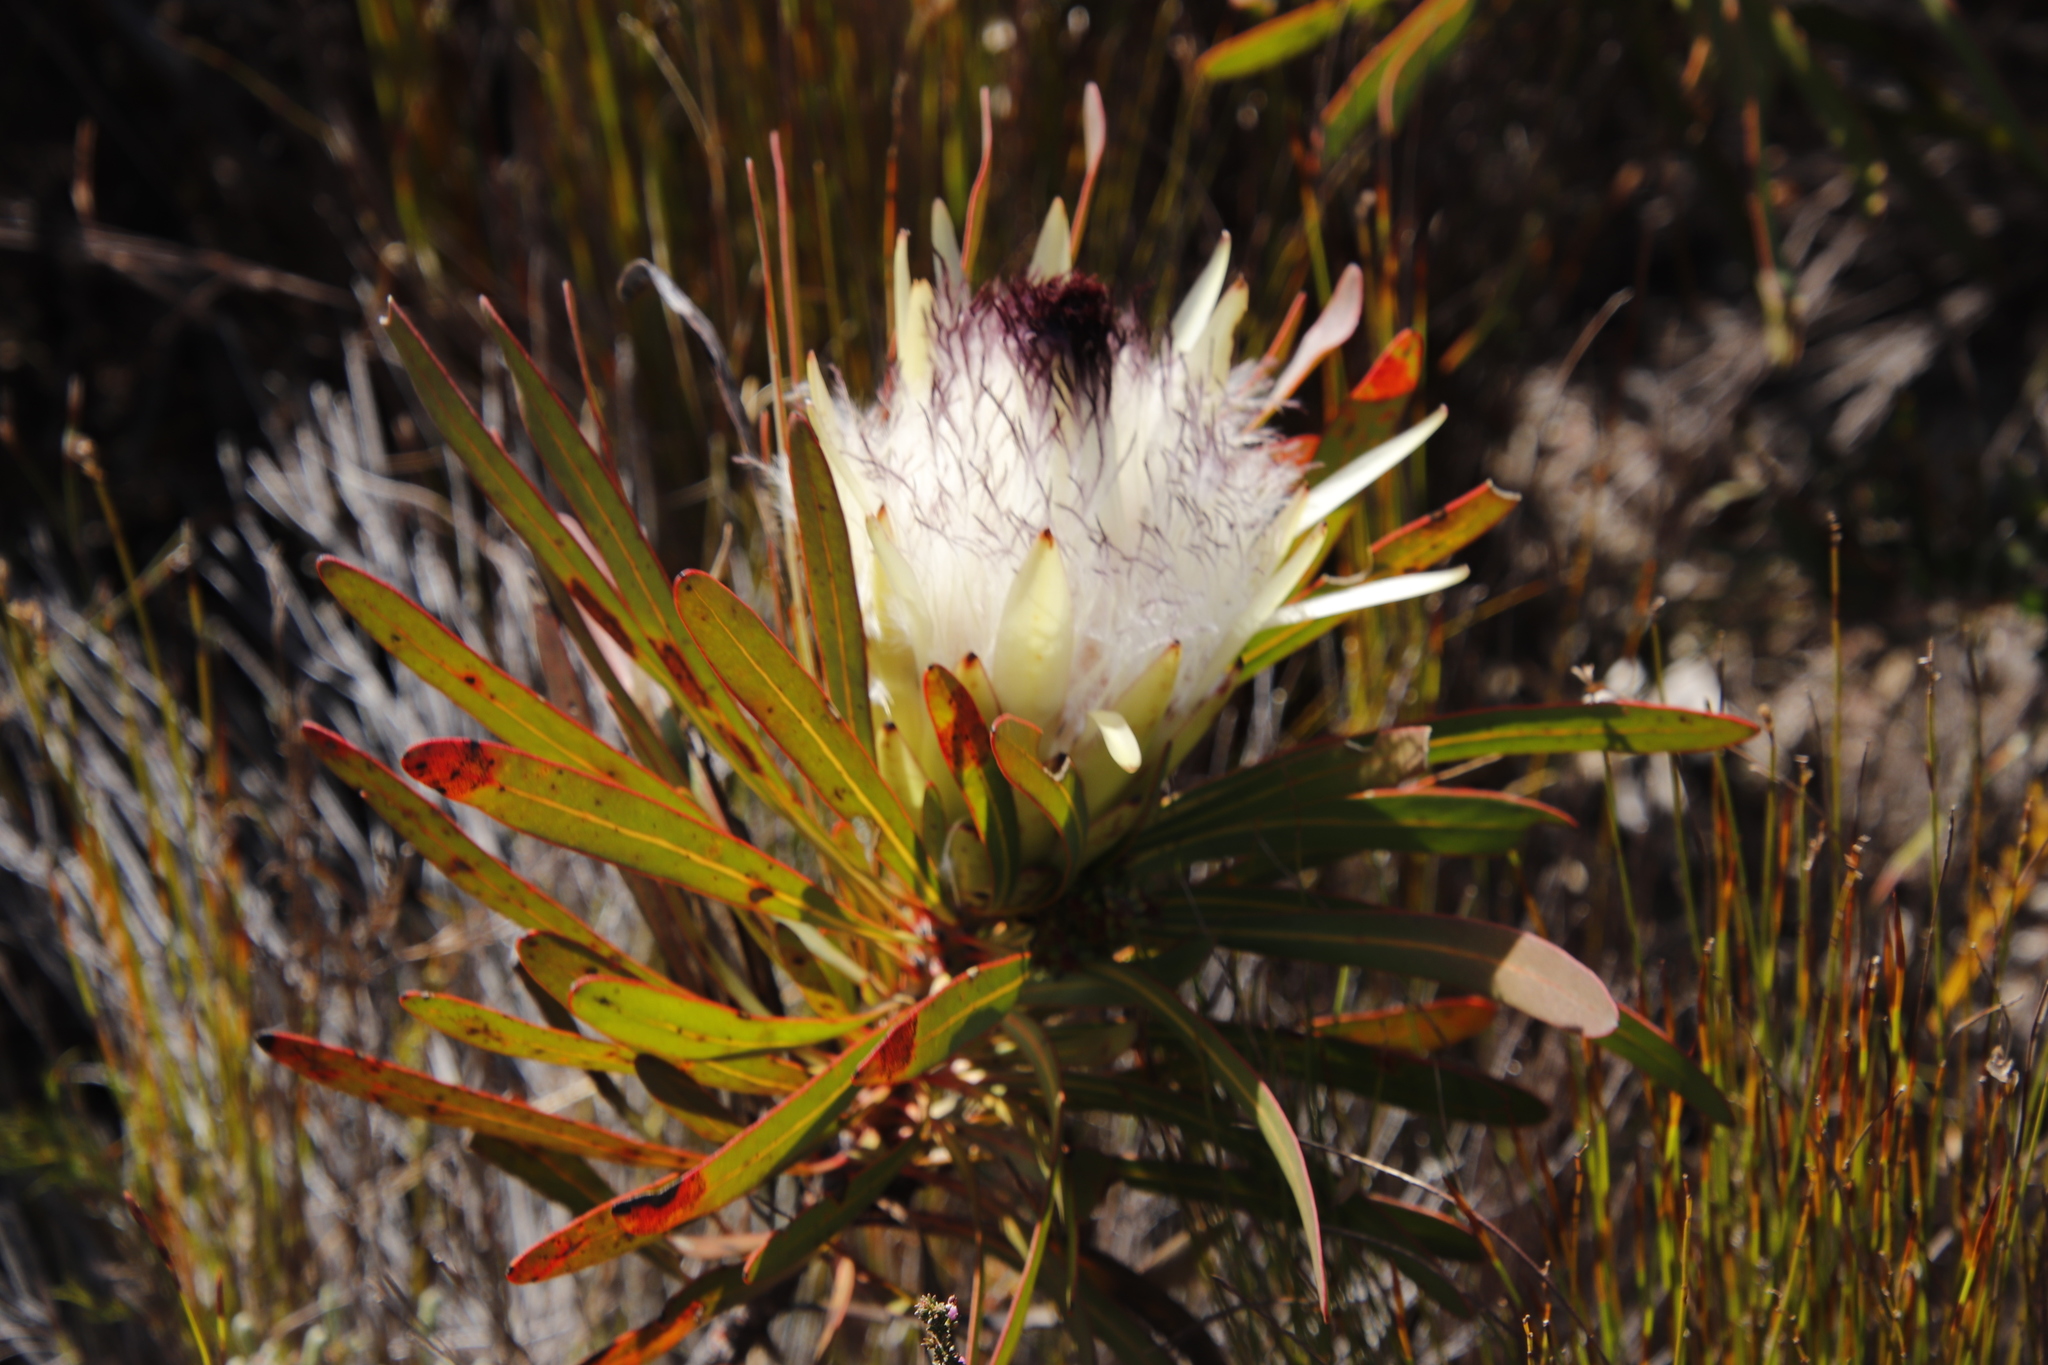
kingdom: Plantae
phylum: Tracheophyta
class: Magnoliopsida
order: Proteales
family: Proteaceae
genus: Protea
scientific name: Protea longifolia
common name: Long-leaf sugarbush
